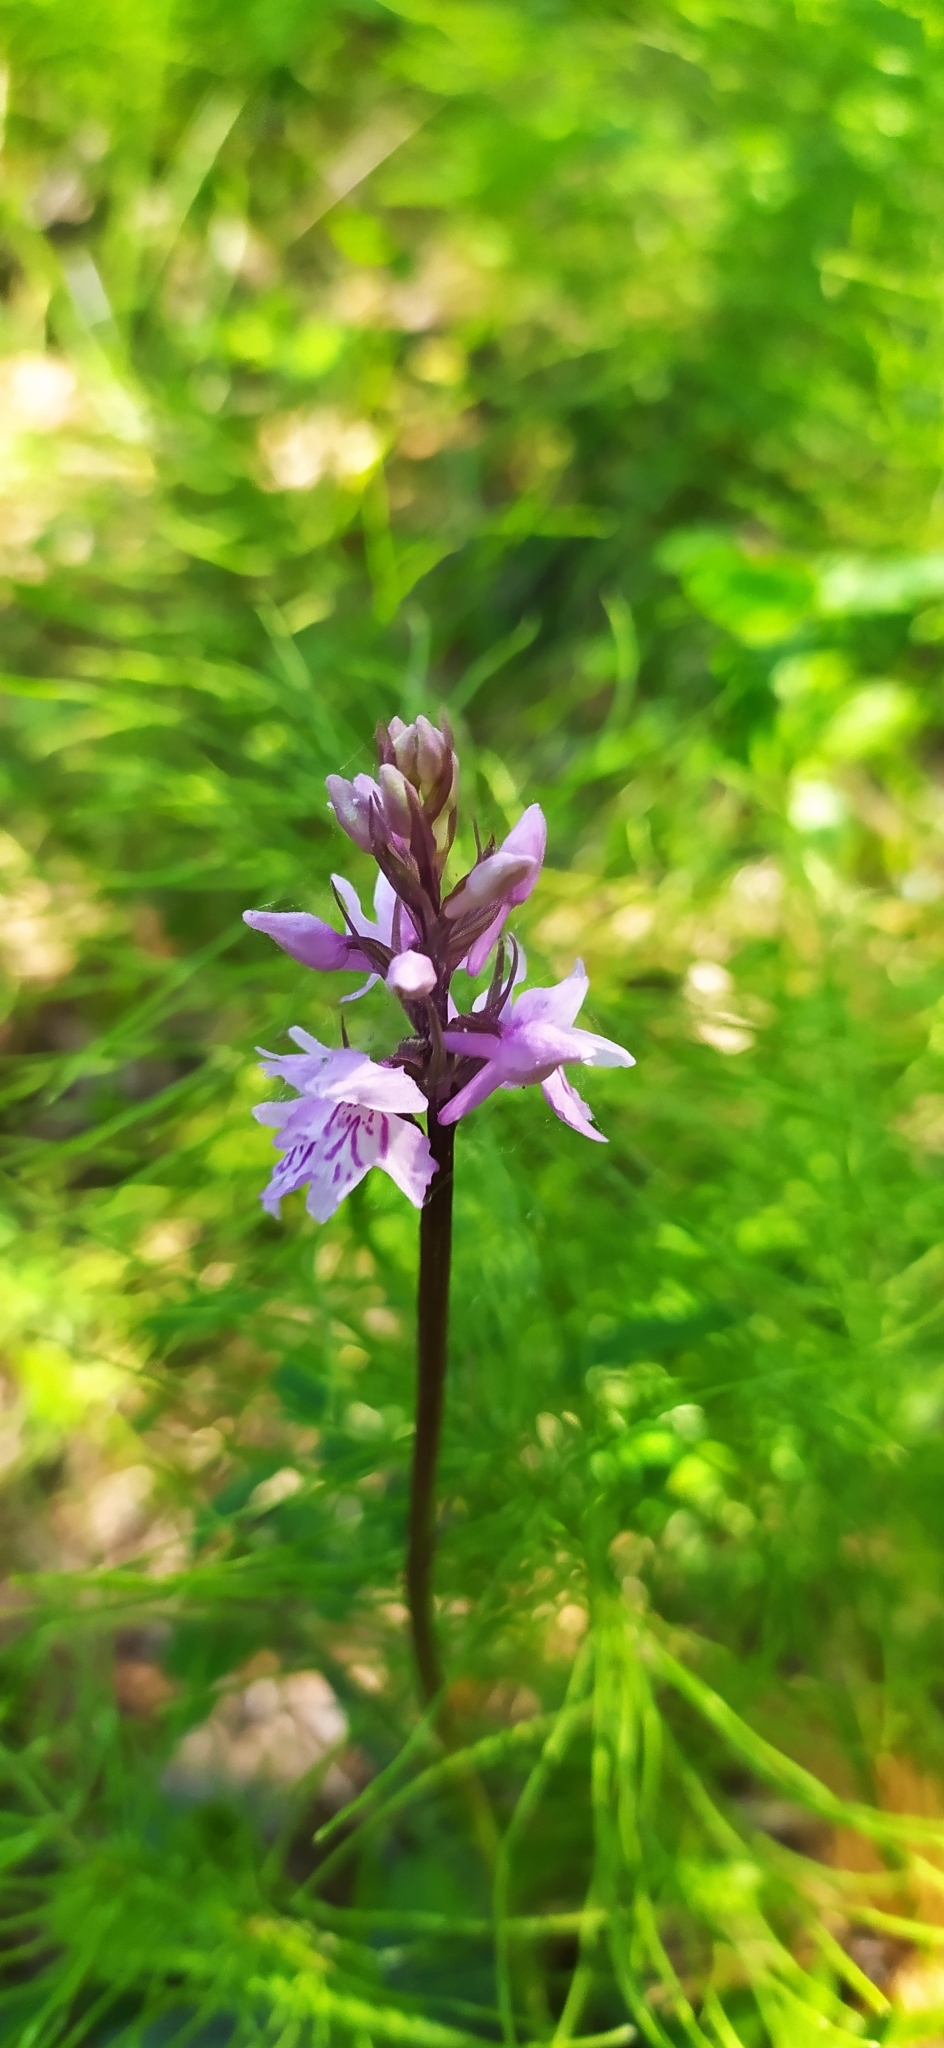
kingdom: Plantae
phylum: Tracheophyta
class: Liliopsida
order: Asparagales
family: Orchidaceae
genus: Dactylorhiza
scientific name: Dactylorhiza maculata
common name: Heath spotted-orchid
